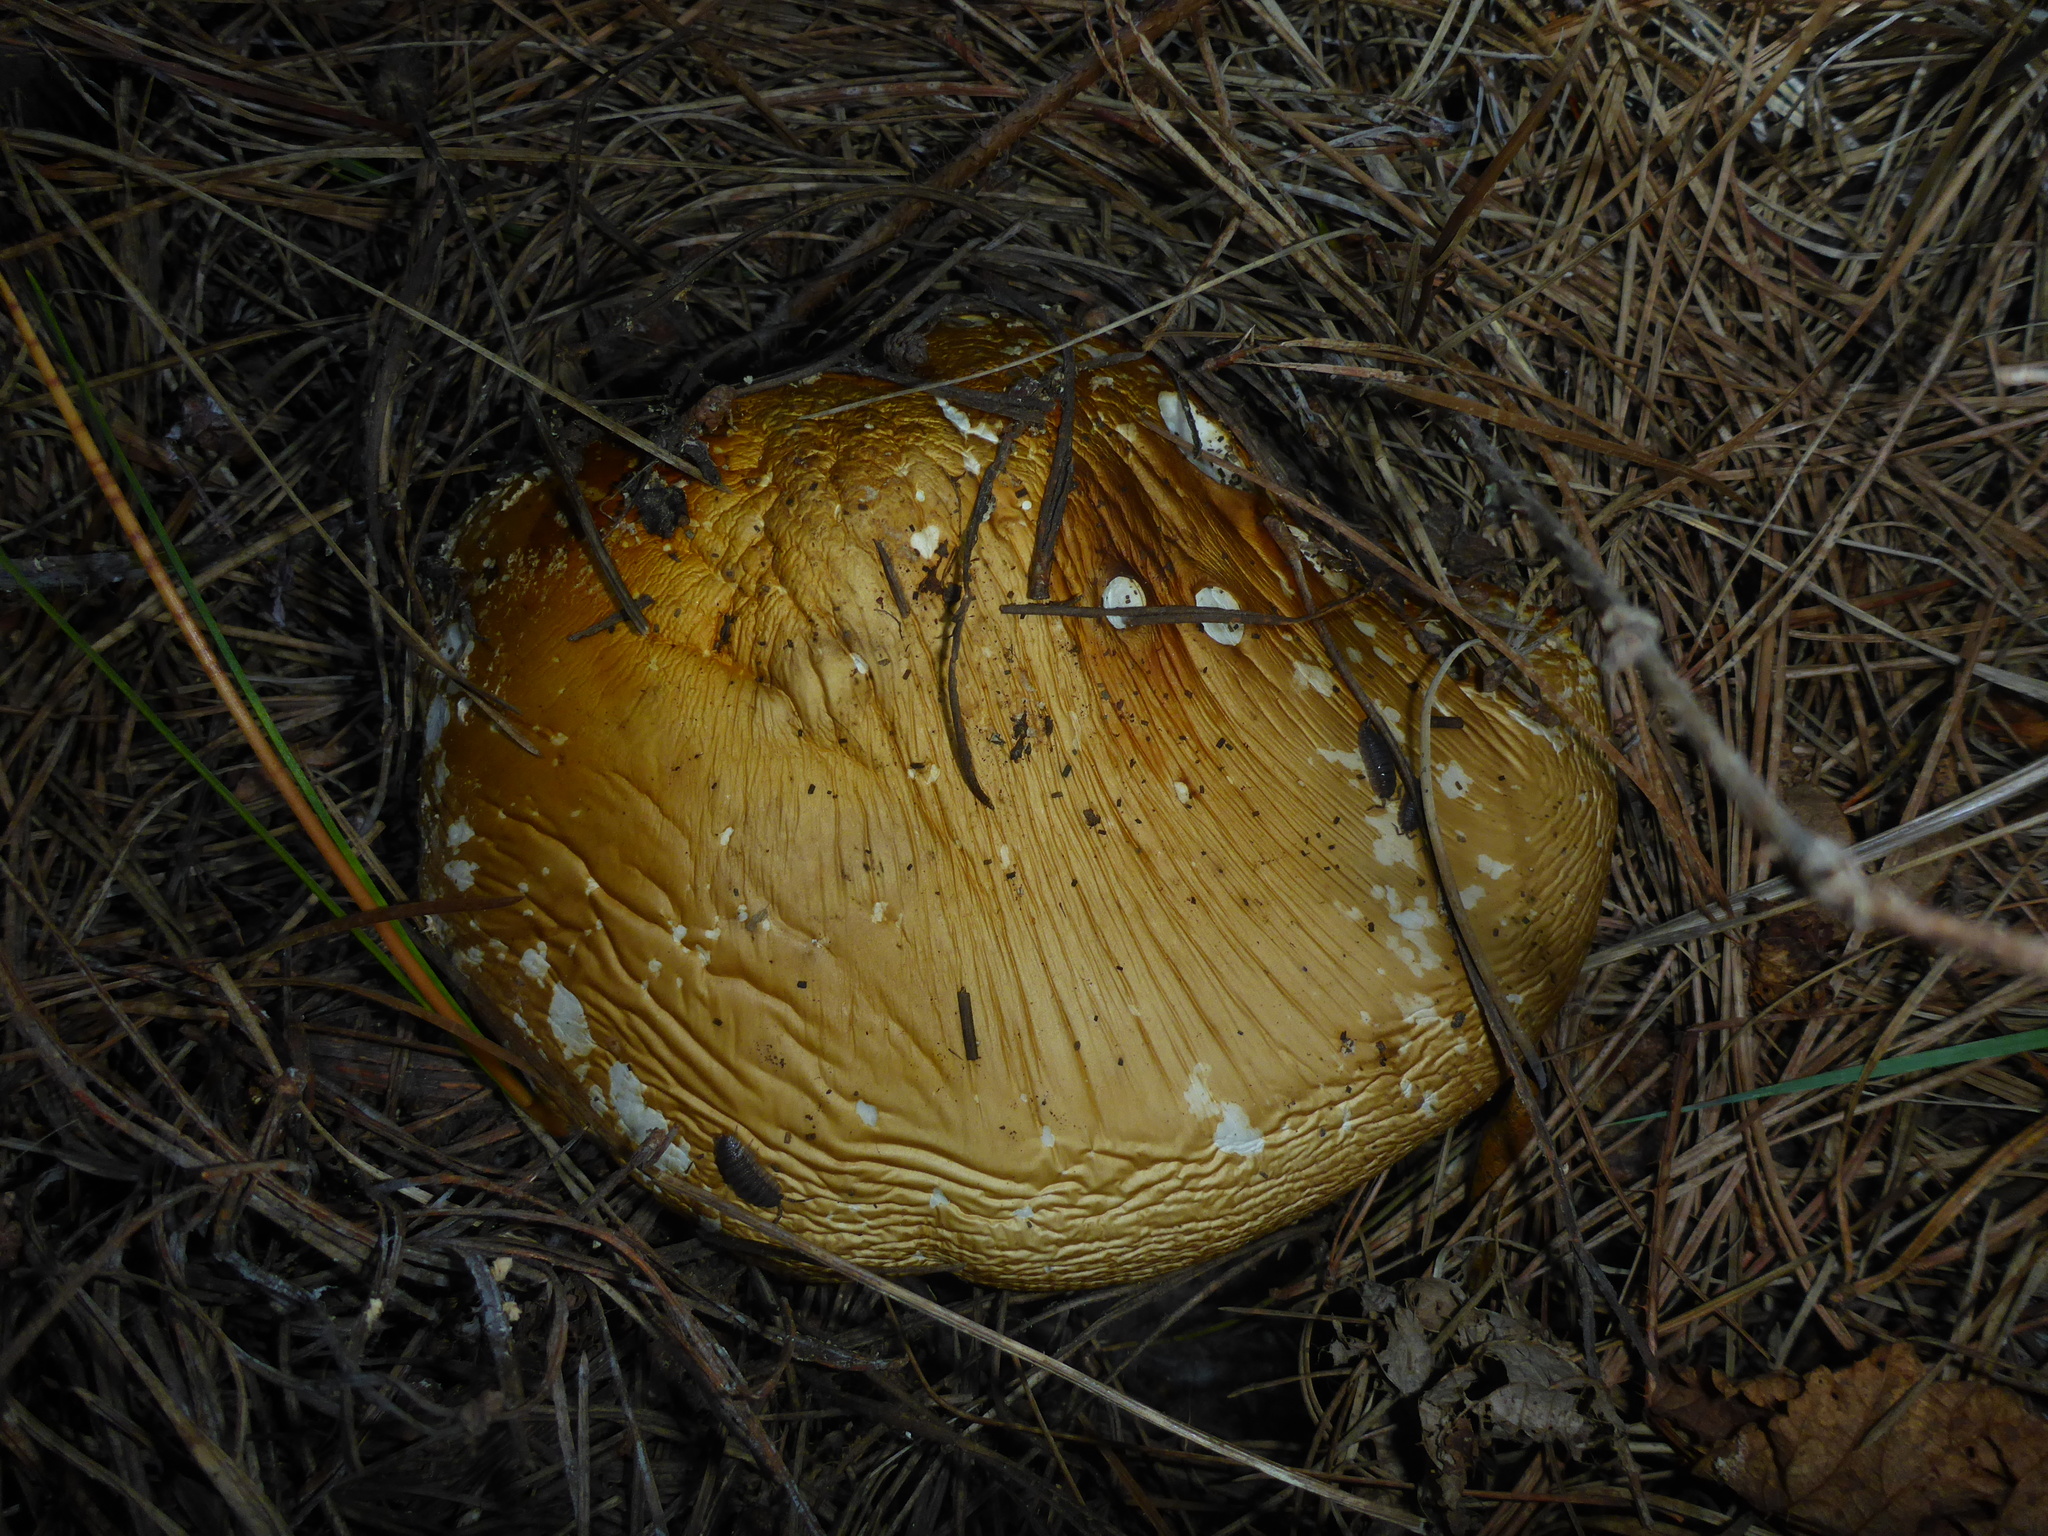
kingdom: Fungi
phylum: Basidiomycota
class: Agaricomycetes
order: Agaricales
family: Amanitaceae
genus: Amanita
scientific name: Amanita muscaria
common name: Fly agaric
